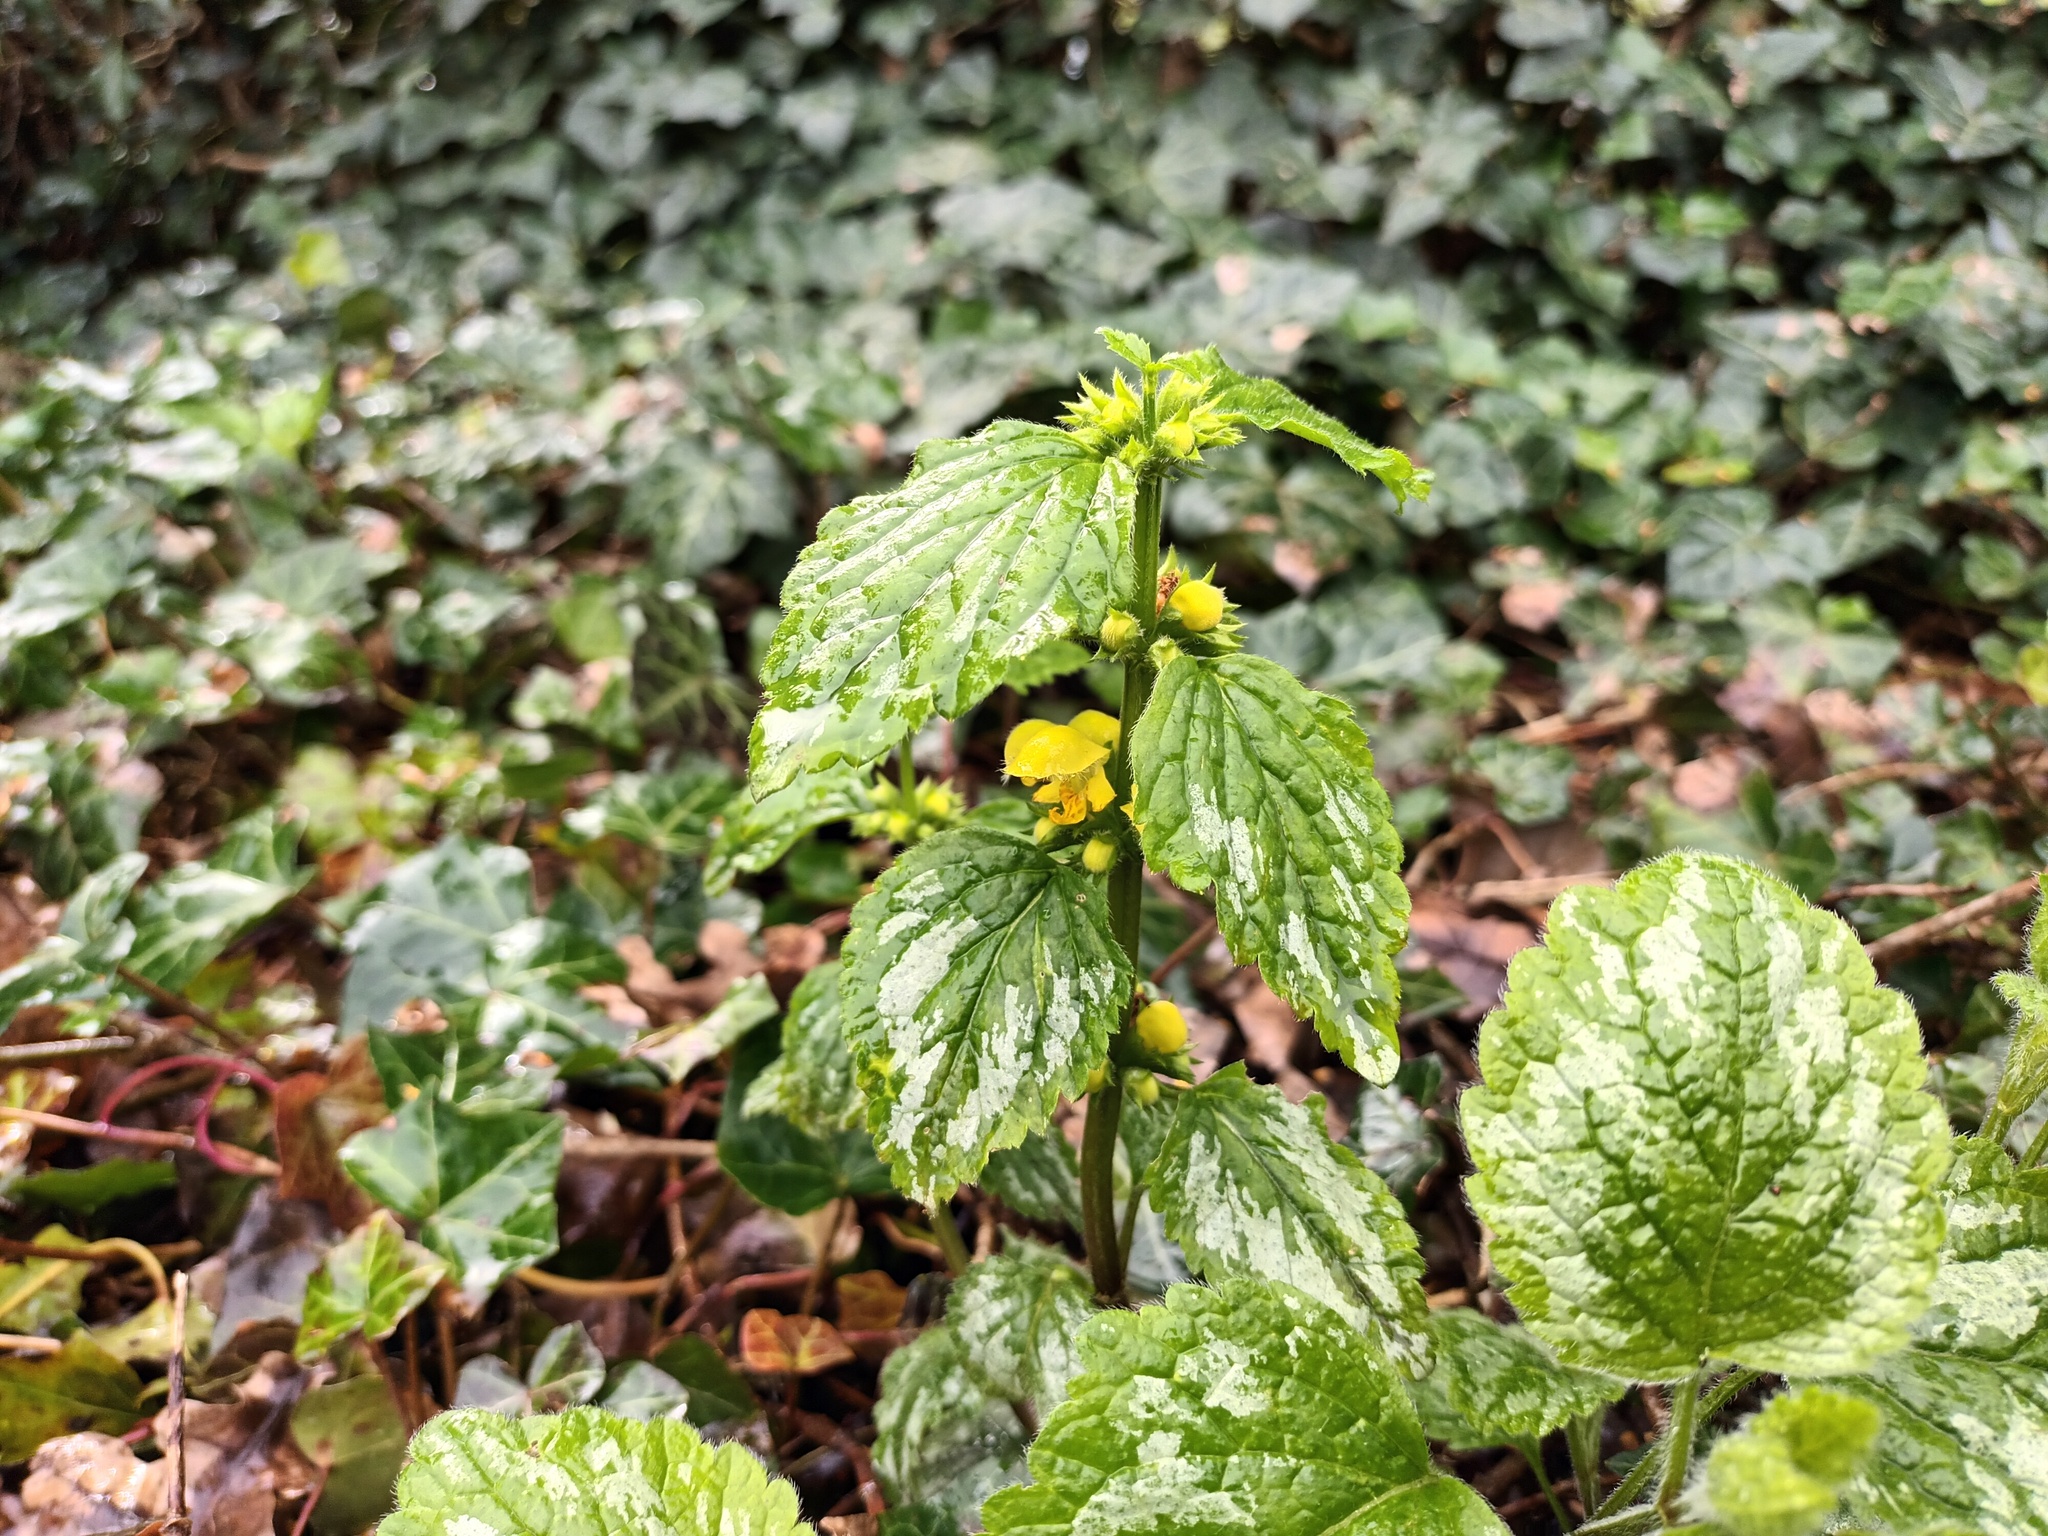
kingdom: Plantae
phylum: Tracheophyta
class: Magnoliopsida
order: Lamiales
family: Lamiaceae
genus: Lamium
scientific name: Lamium galeobdolon
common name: Yellow archangel
